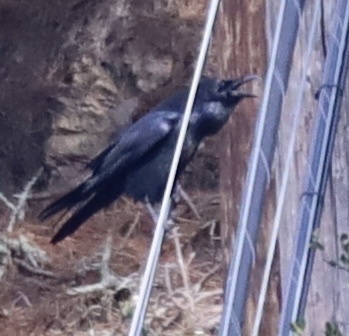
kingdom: Animalia
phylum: Chordata
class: Aves
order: Passeriformes
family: Corvidae
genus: Corvus
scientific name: Corvus corax
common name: Common raven
